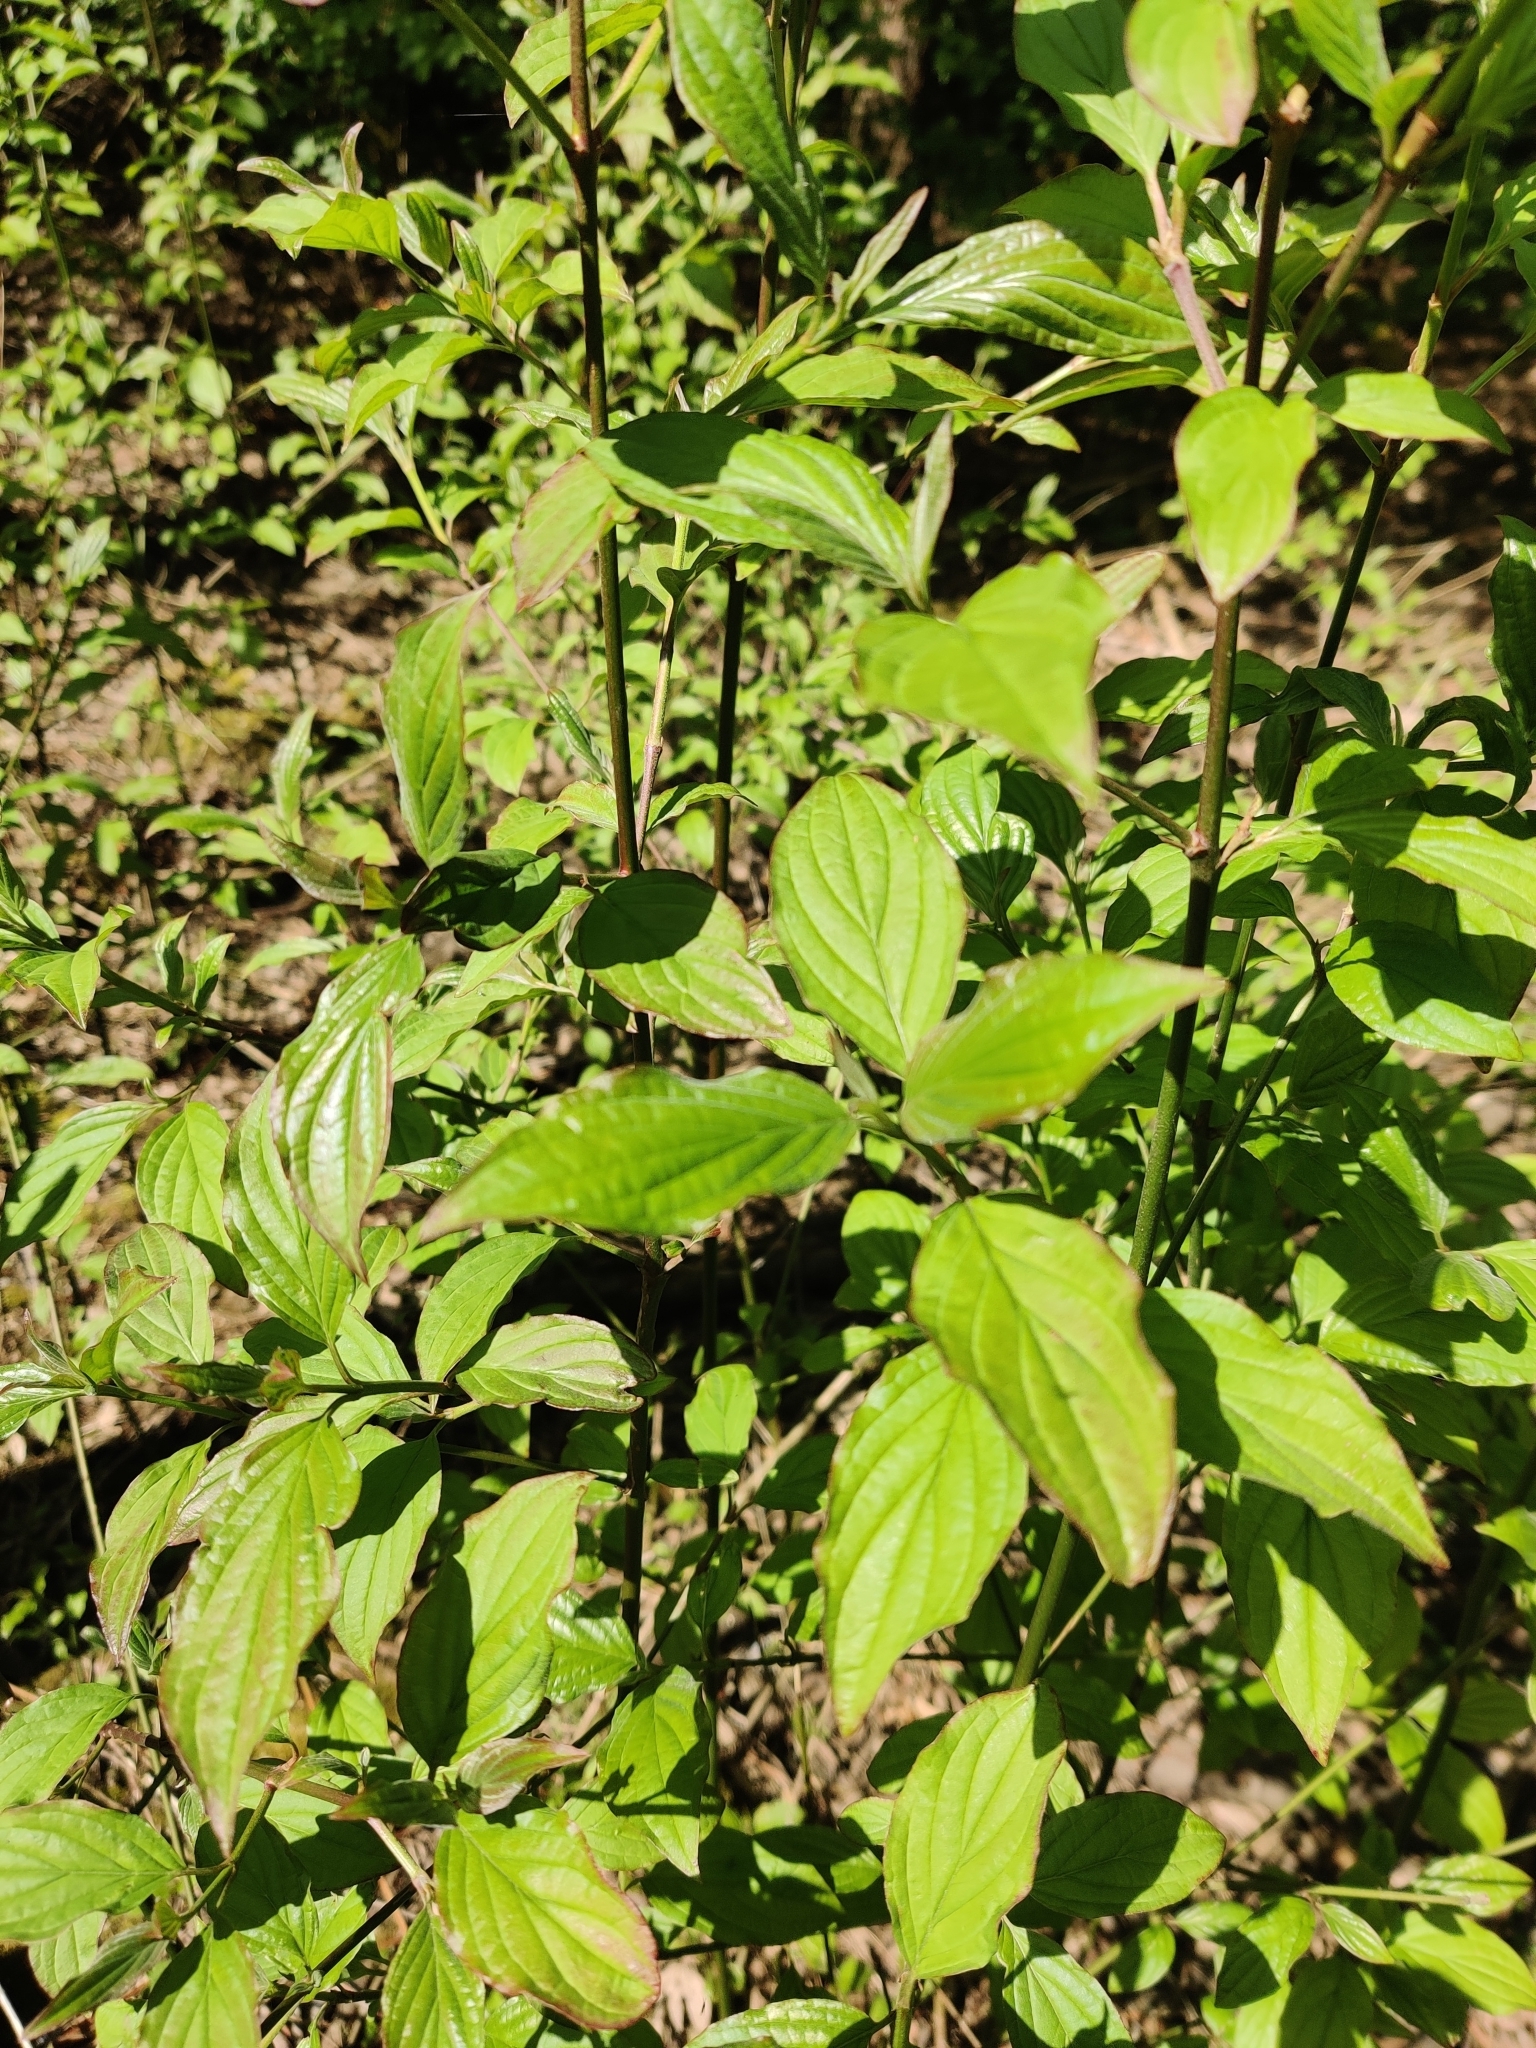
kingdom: Plantae
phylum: Tracheophyta
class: Magnoliopsida
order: Cornales
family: Cornaceae
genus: Cornus
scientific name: Cornus sanguinea
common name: Dogwood
